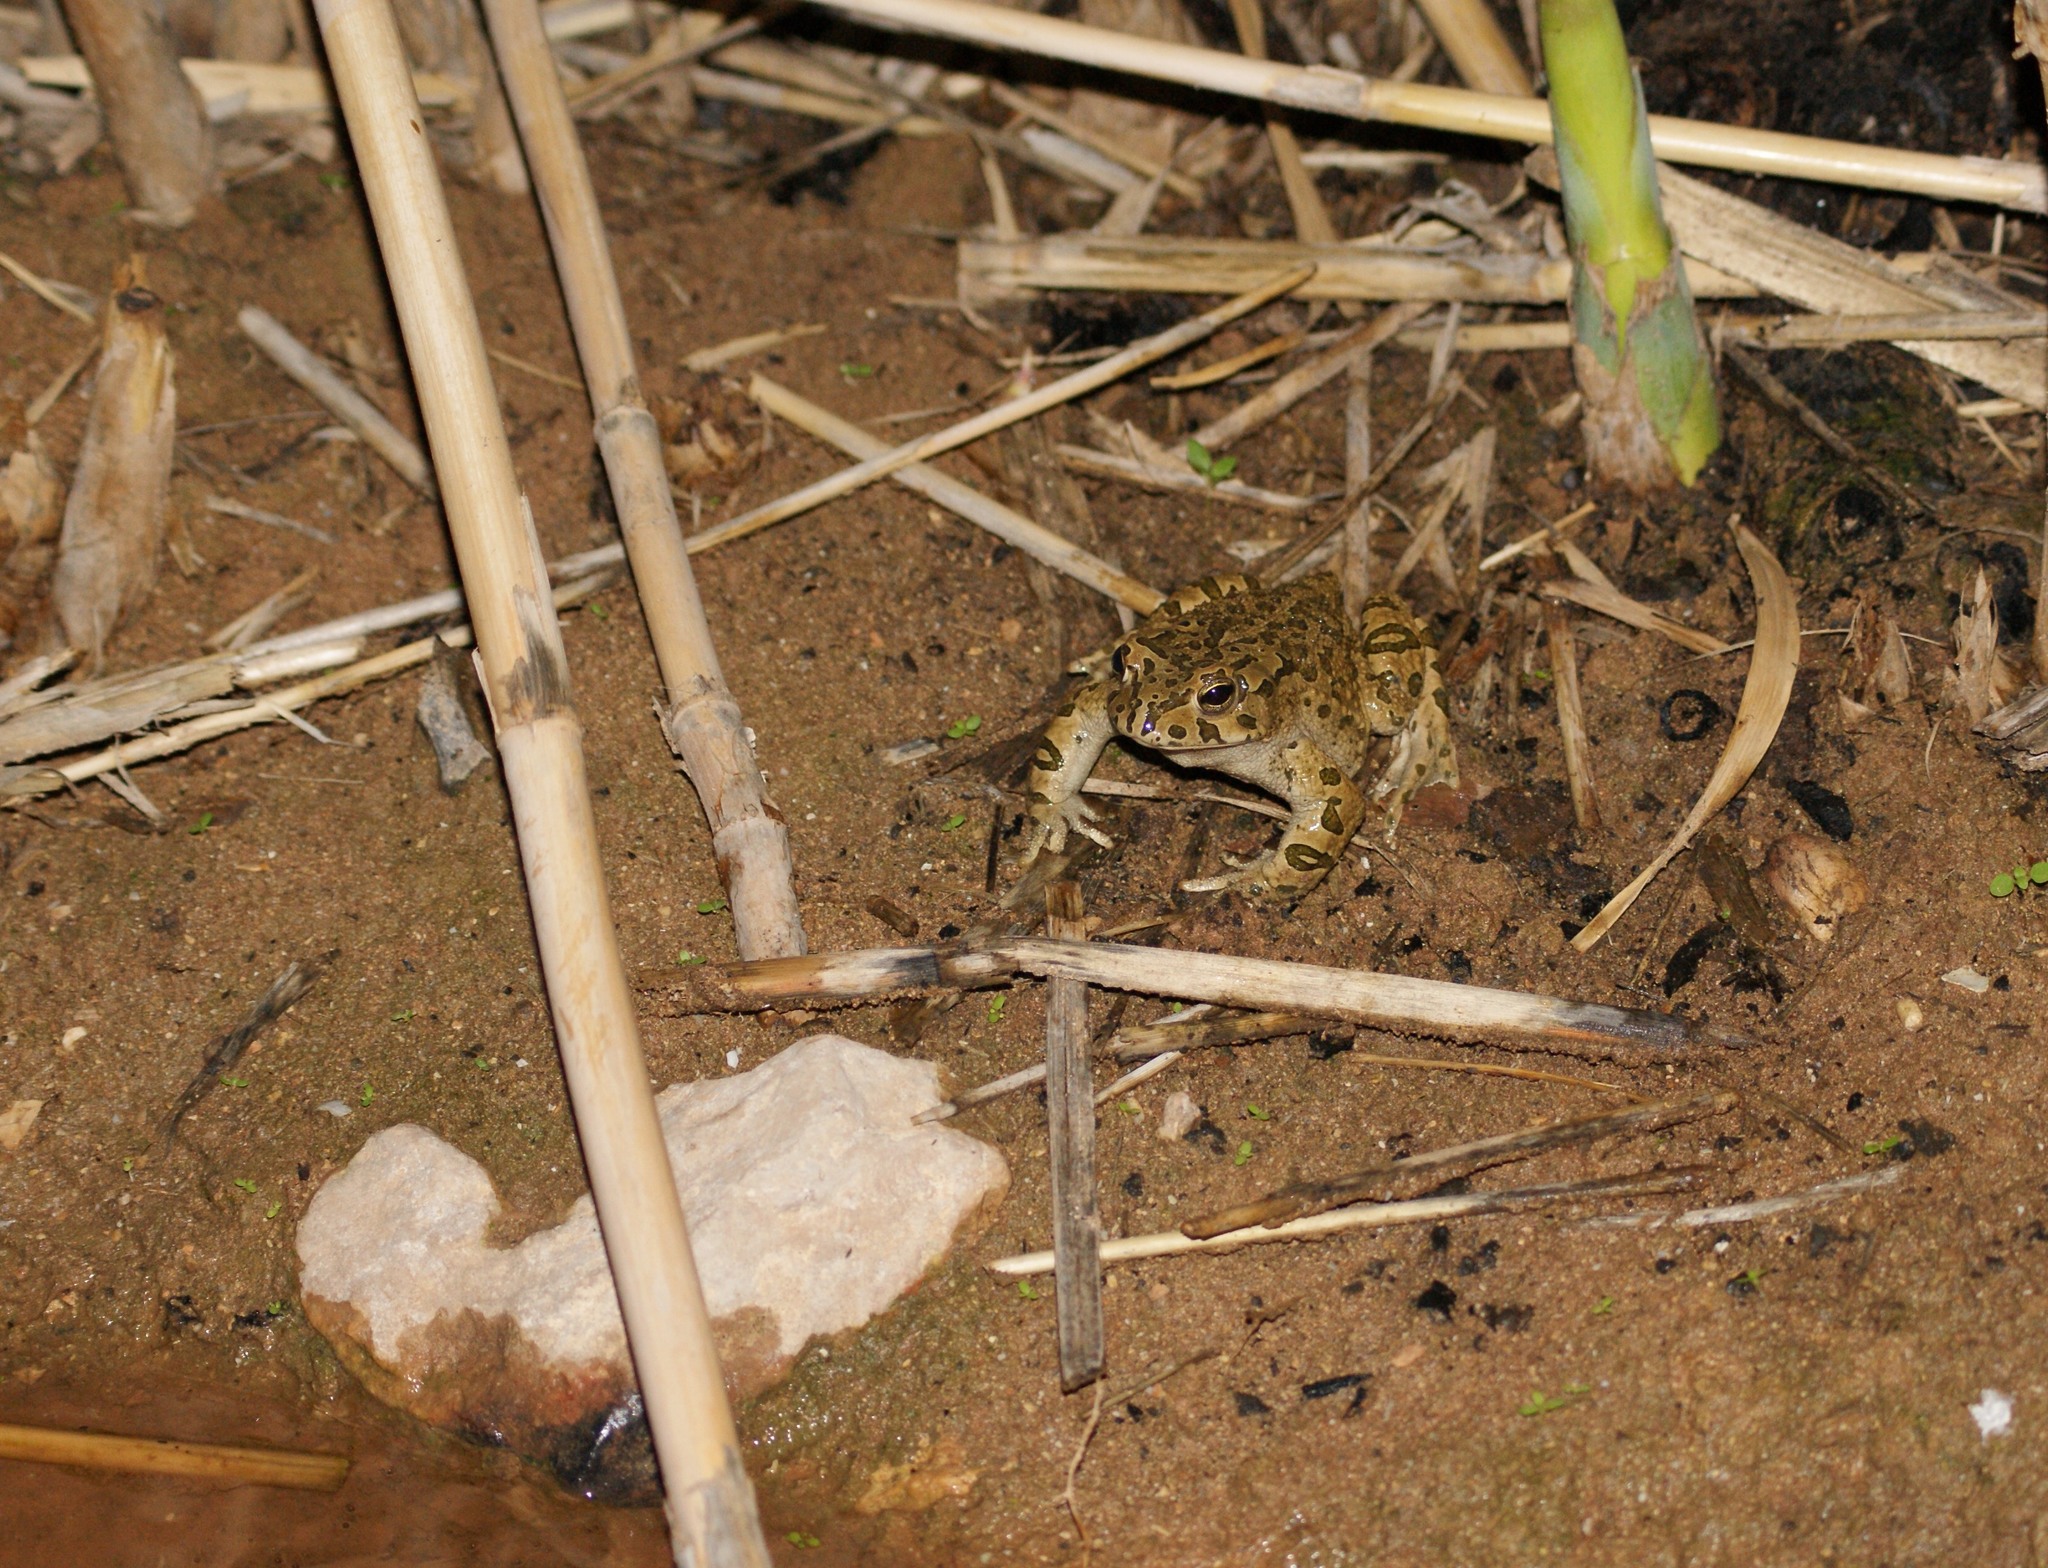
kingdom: Animalia
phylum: Chordata
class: Amphibia
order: Anura
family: Bufonidae
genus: Bufotes
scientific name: Bufotes viridis
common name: European green toad
